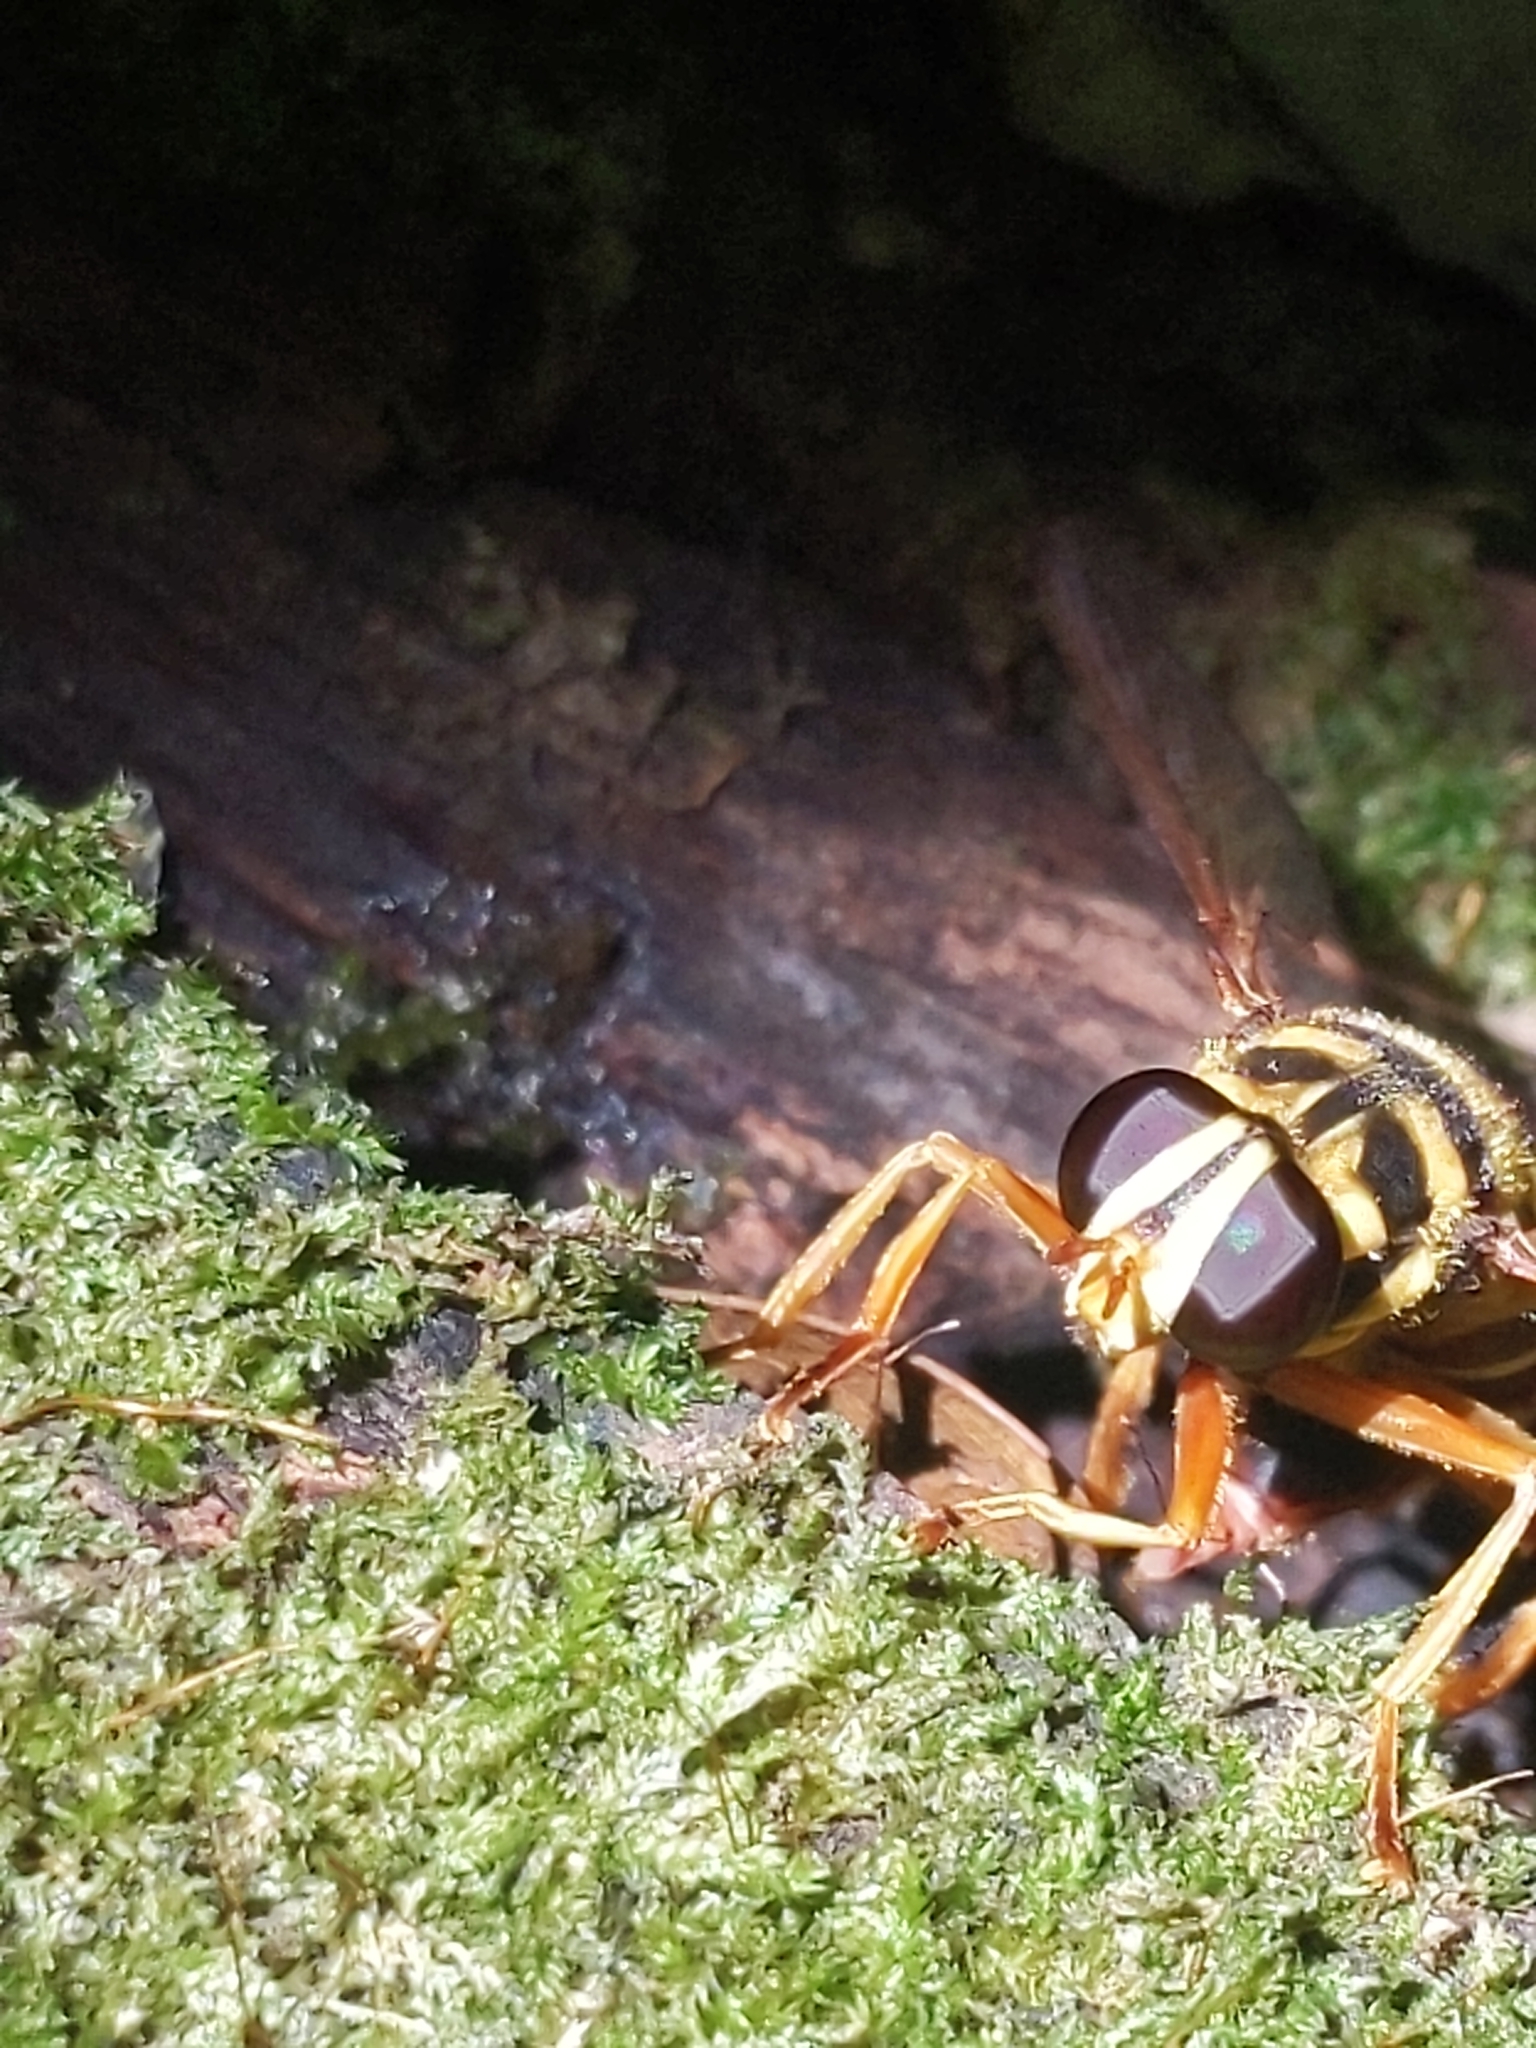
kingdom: Animalia
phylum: Arthropoda
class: Insecta
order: Diptera
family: Syrphidae
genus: Milesia
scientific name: Milesia virginiensis
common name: Virginia giant
